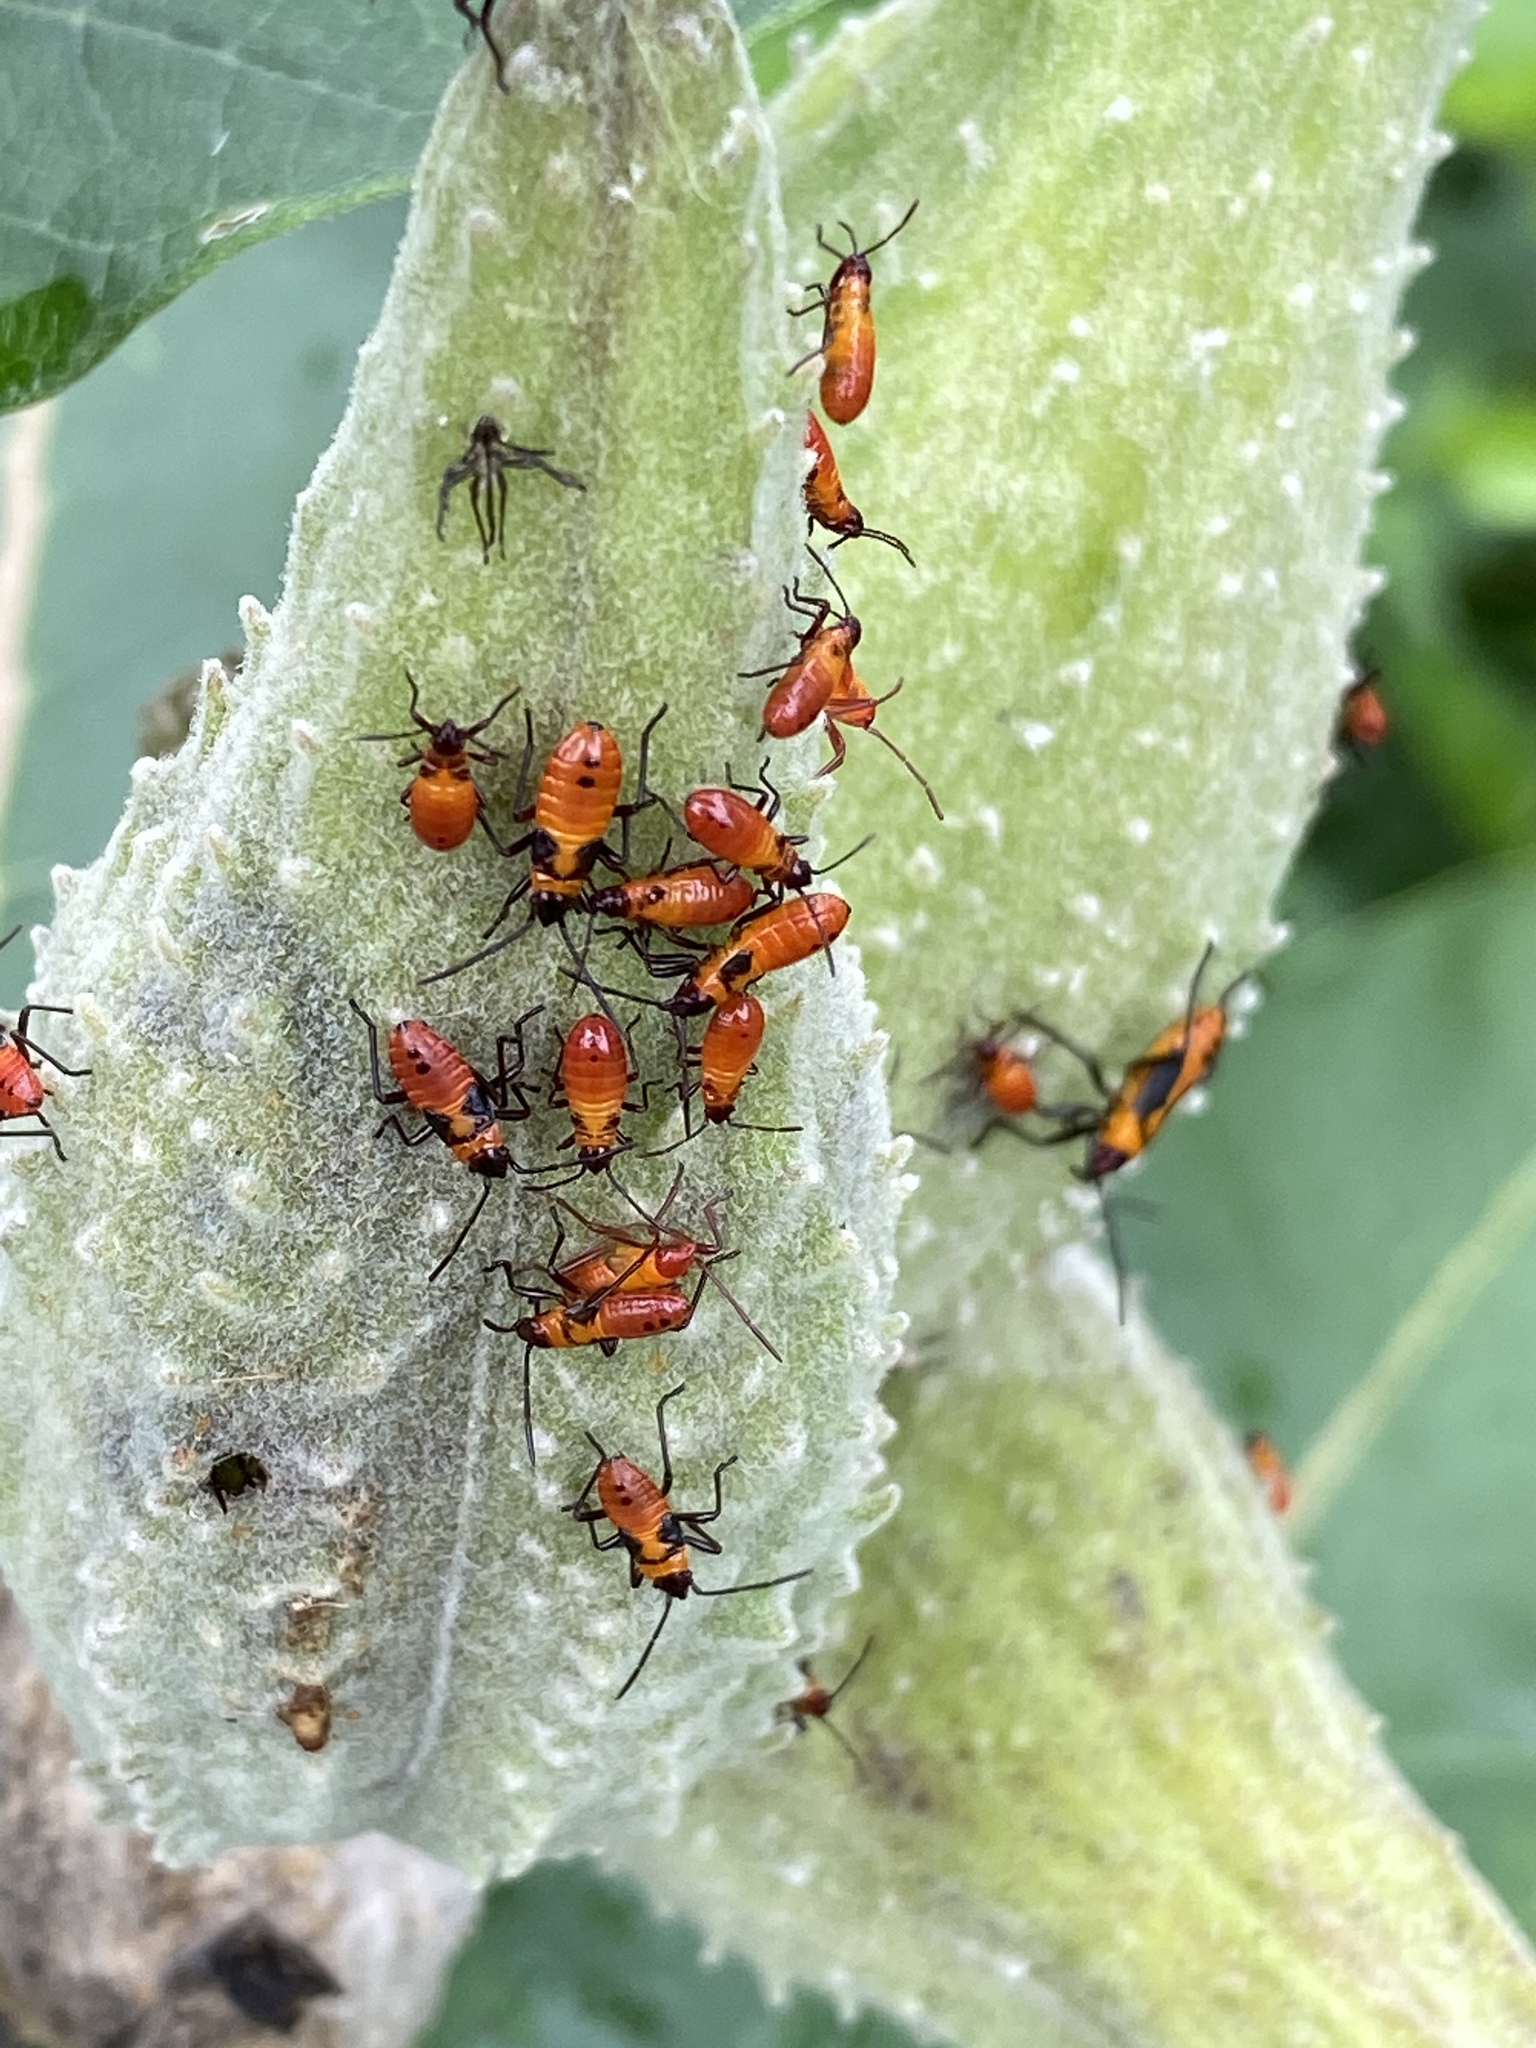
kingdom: Animalia
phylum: Arthropoda
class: Insecta
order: Hemiptera
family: Lygaeidae
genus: Oncopeltus
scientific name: Oncopeltus fasciatus
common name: Large milkweed bug
